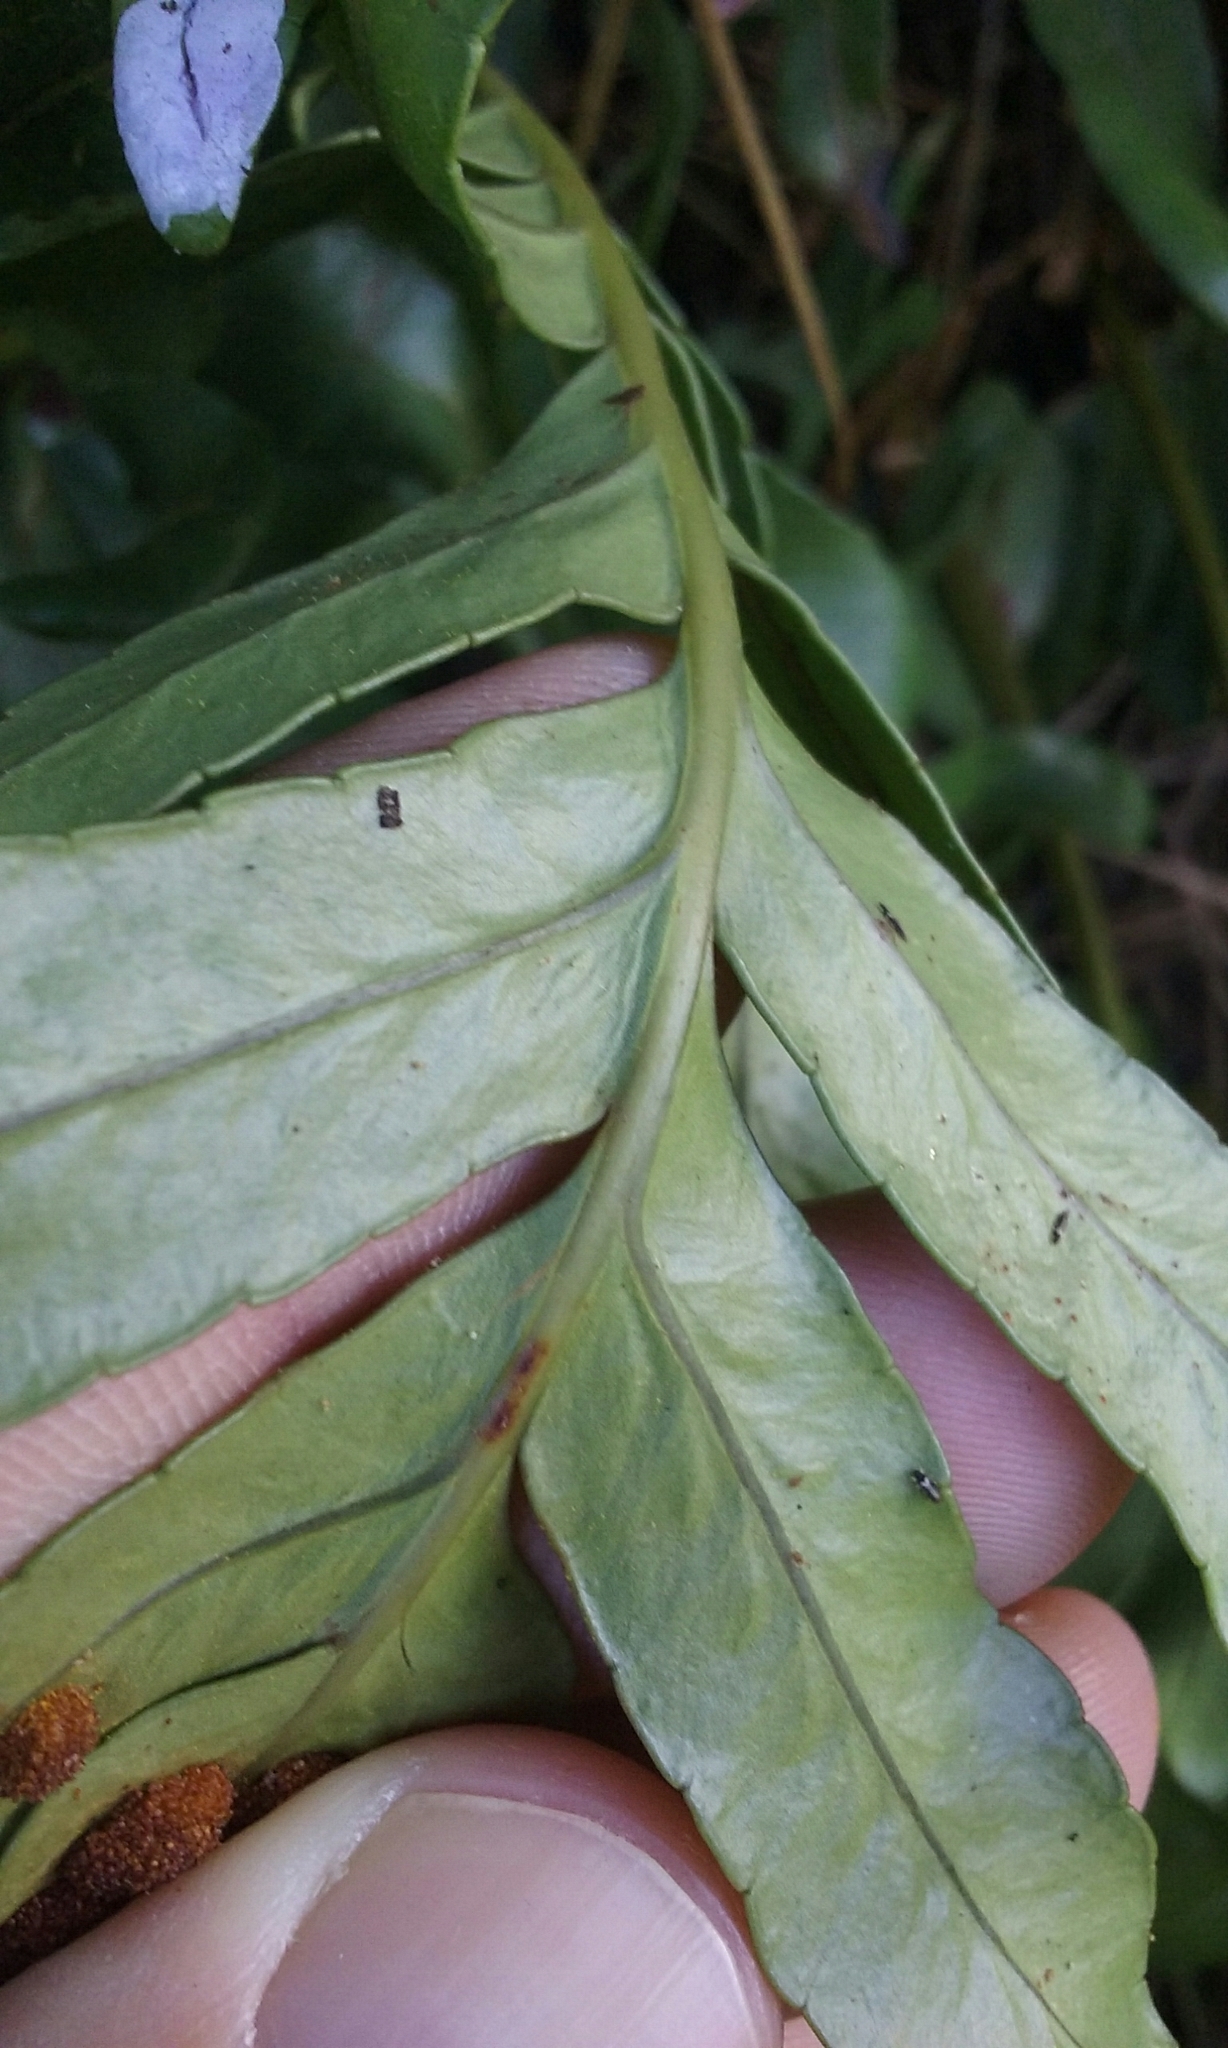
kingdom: Plantae
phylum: Tracheophyta
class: Polypodiopsida
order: Polypodiales
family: Polypodiaceae
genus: Polypodium
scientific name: Polypodium scouleri
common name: Scouler's polypody
